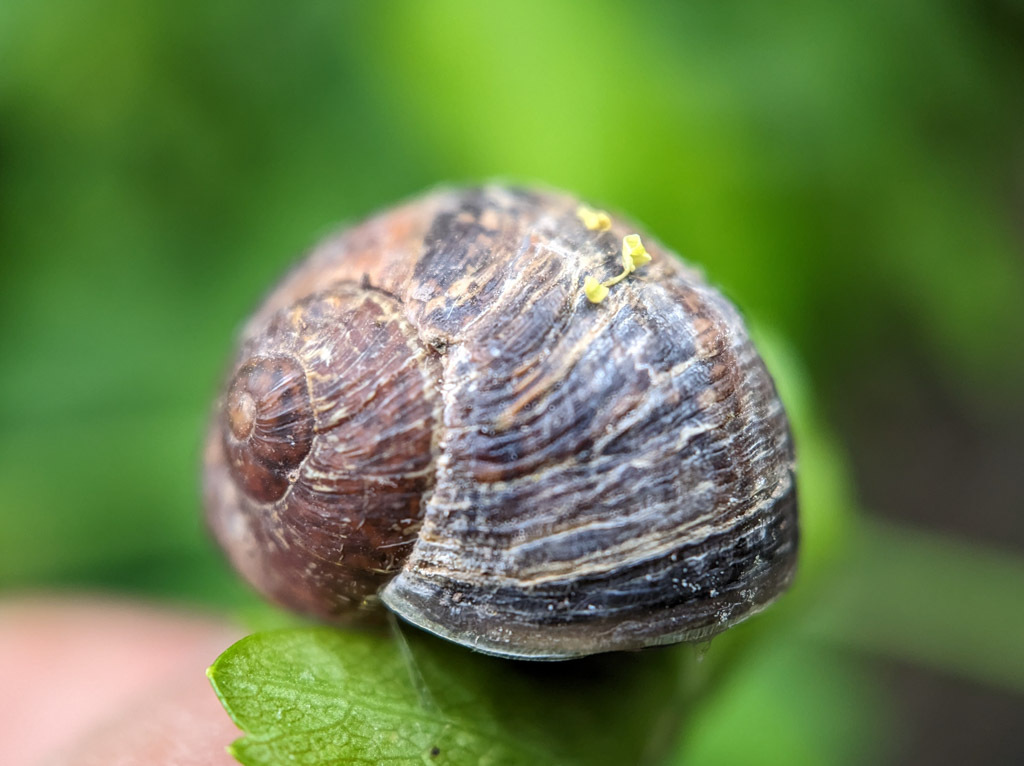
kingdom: Animalia
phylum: Mollusca
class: Gastropoda
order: Stylommatophora
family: Helicidae
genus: Cornu
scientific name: Cornu aspersum
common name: Brown garden snail
